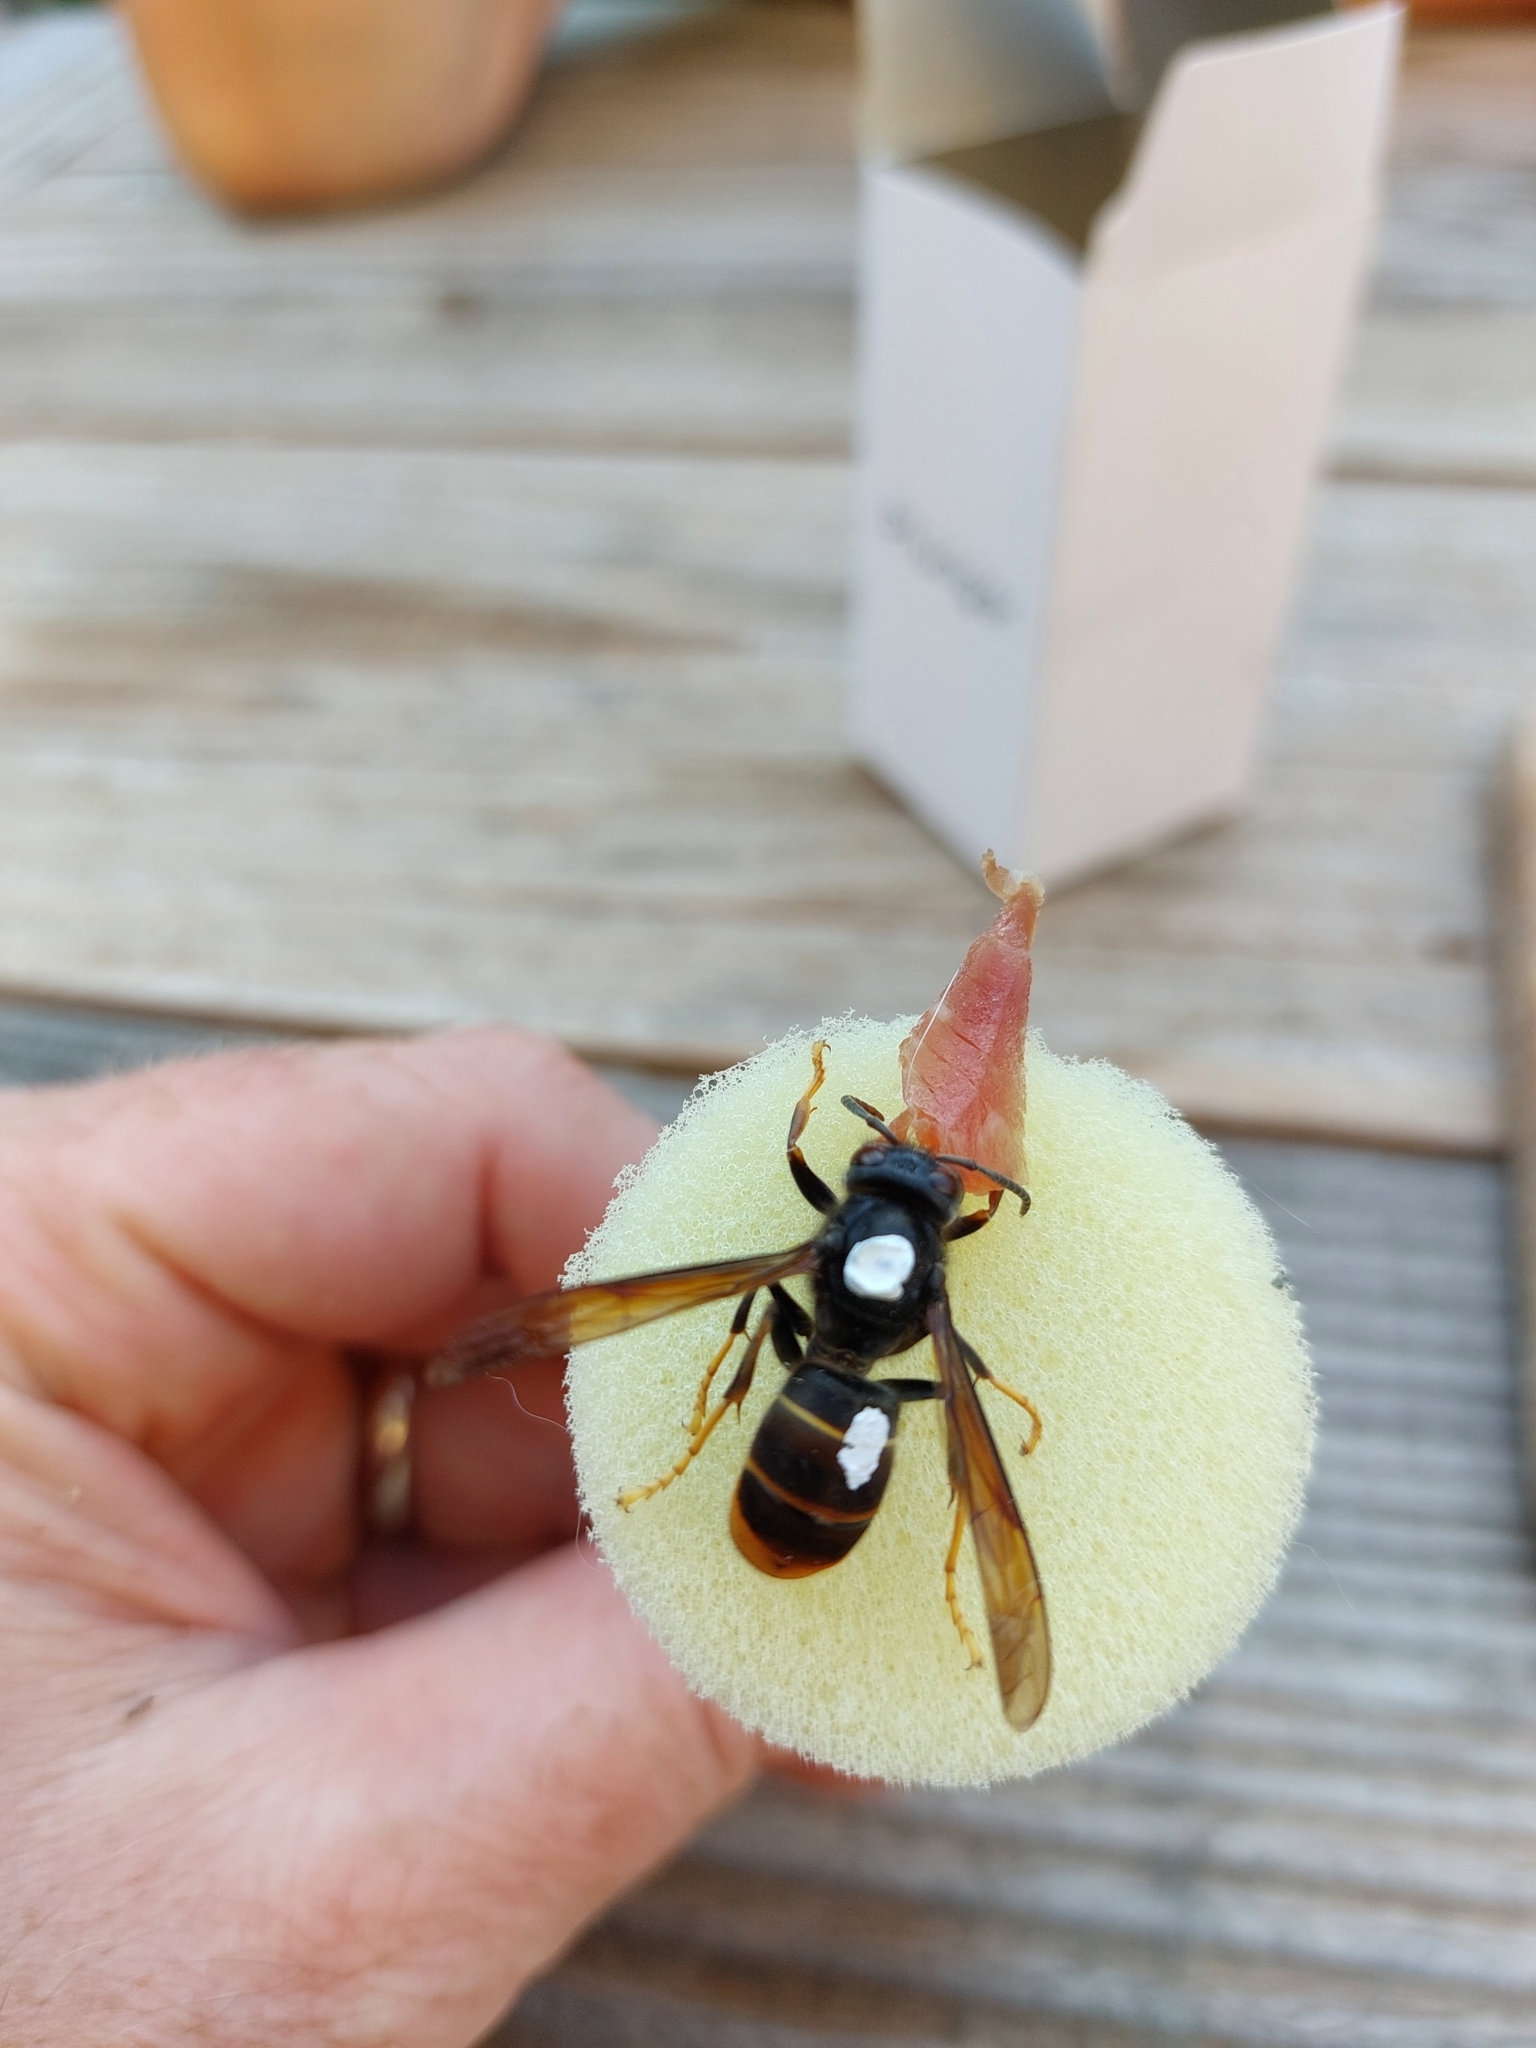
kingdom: Animalia
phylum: Arthropoda
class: Insecta
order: Hymenoptera
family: Vespidae
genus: Vespa
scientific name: Vespa velutina
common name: Asian hornet
